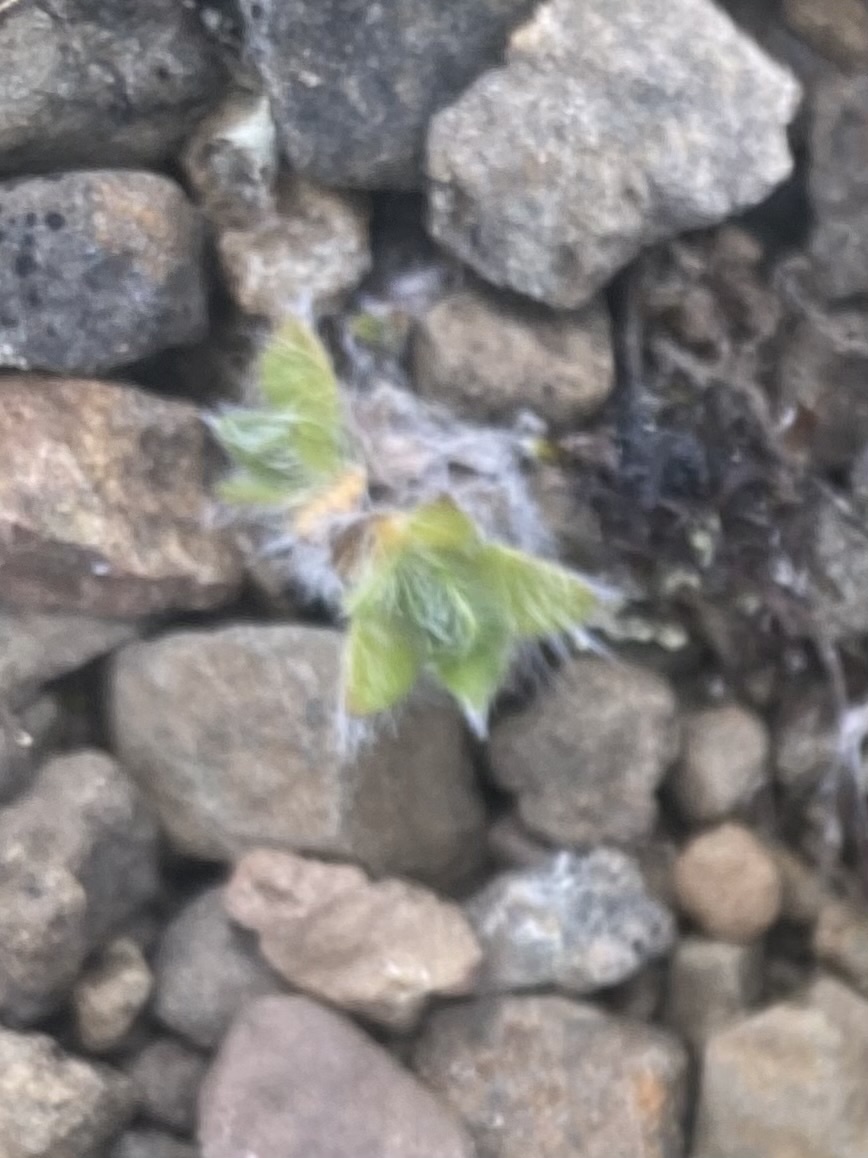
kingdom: Plantae
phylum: Tracheophyta
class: Magnoliopsida
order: Boraginales
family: Boraginaceae
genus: Eritrichium
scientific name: Eritrichium villosum
